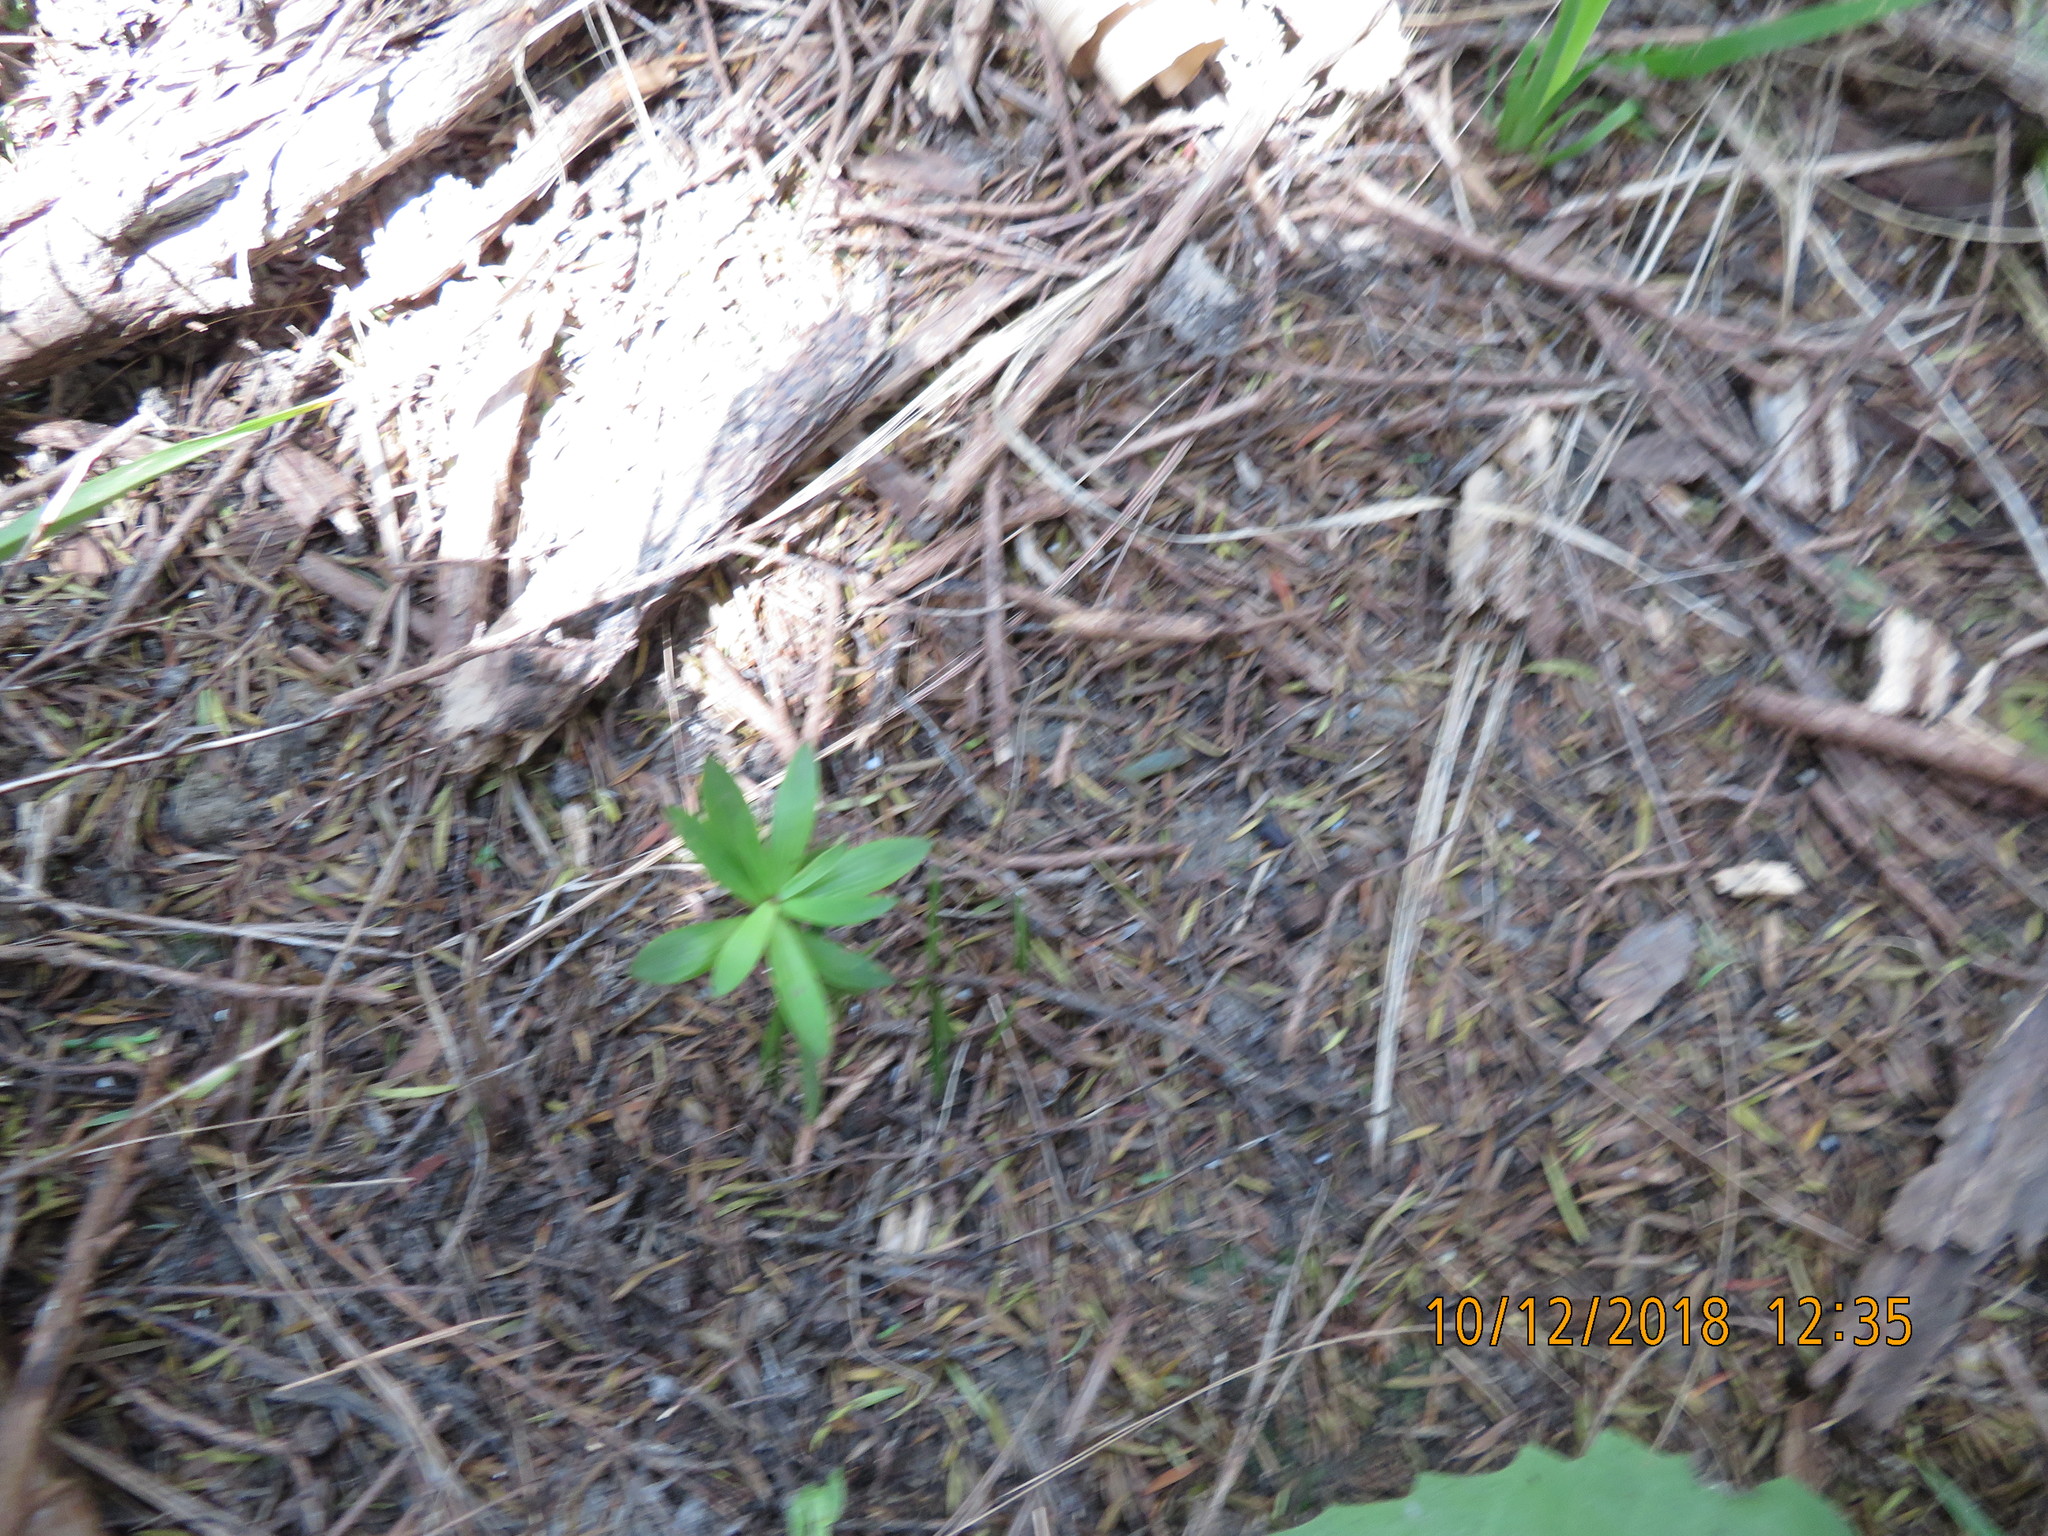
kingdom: Plantae
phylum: Tracheophyta
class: Magnoliopsida
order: Ericales
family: Ericaceae
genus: Leucopogon
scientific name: Leucopogon fasciculatus
